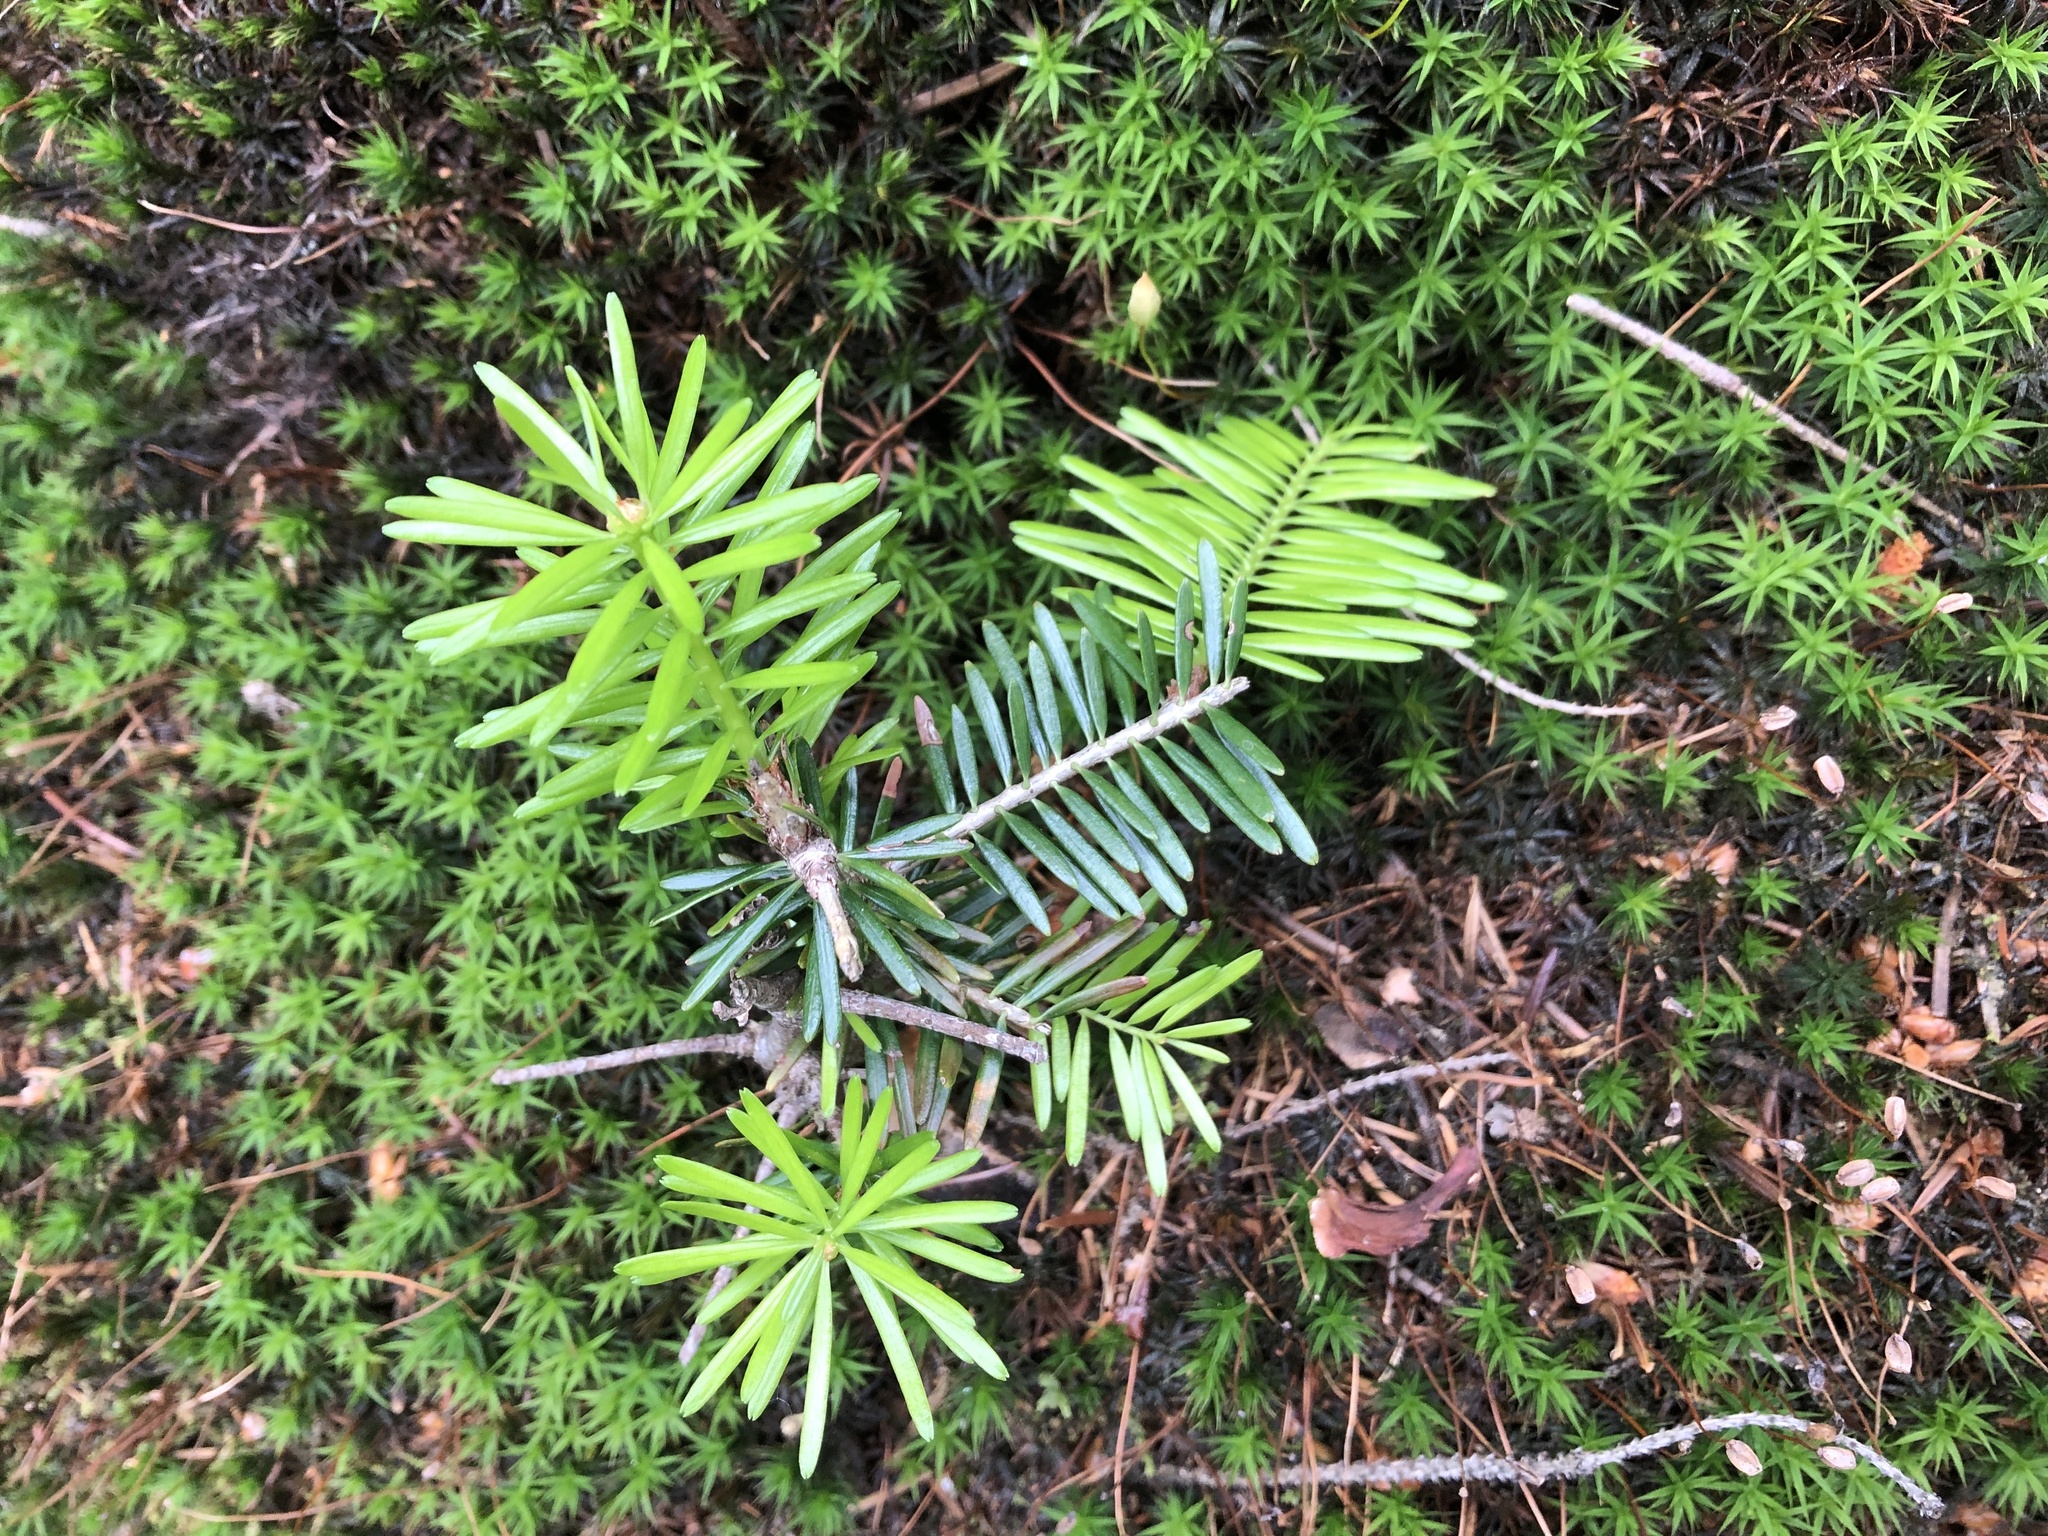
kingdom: Plantae
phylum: Tracheophyta
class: Pinopsida
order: Pinales
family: Pinaceae
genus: Abies
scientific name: Abies alba
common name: Silver fir
